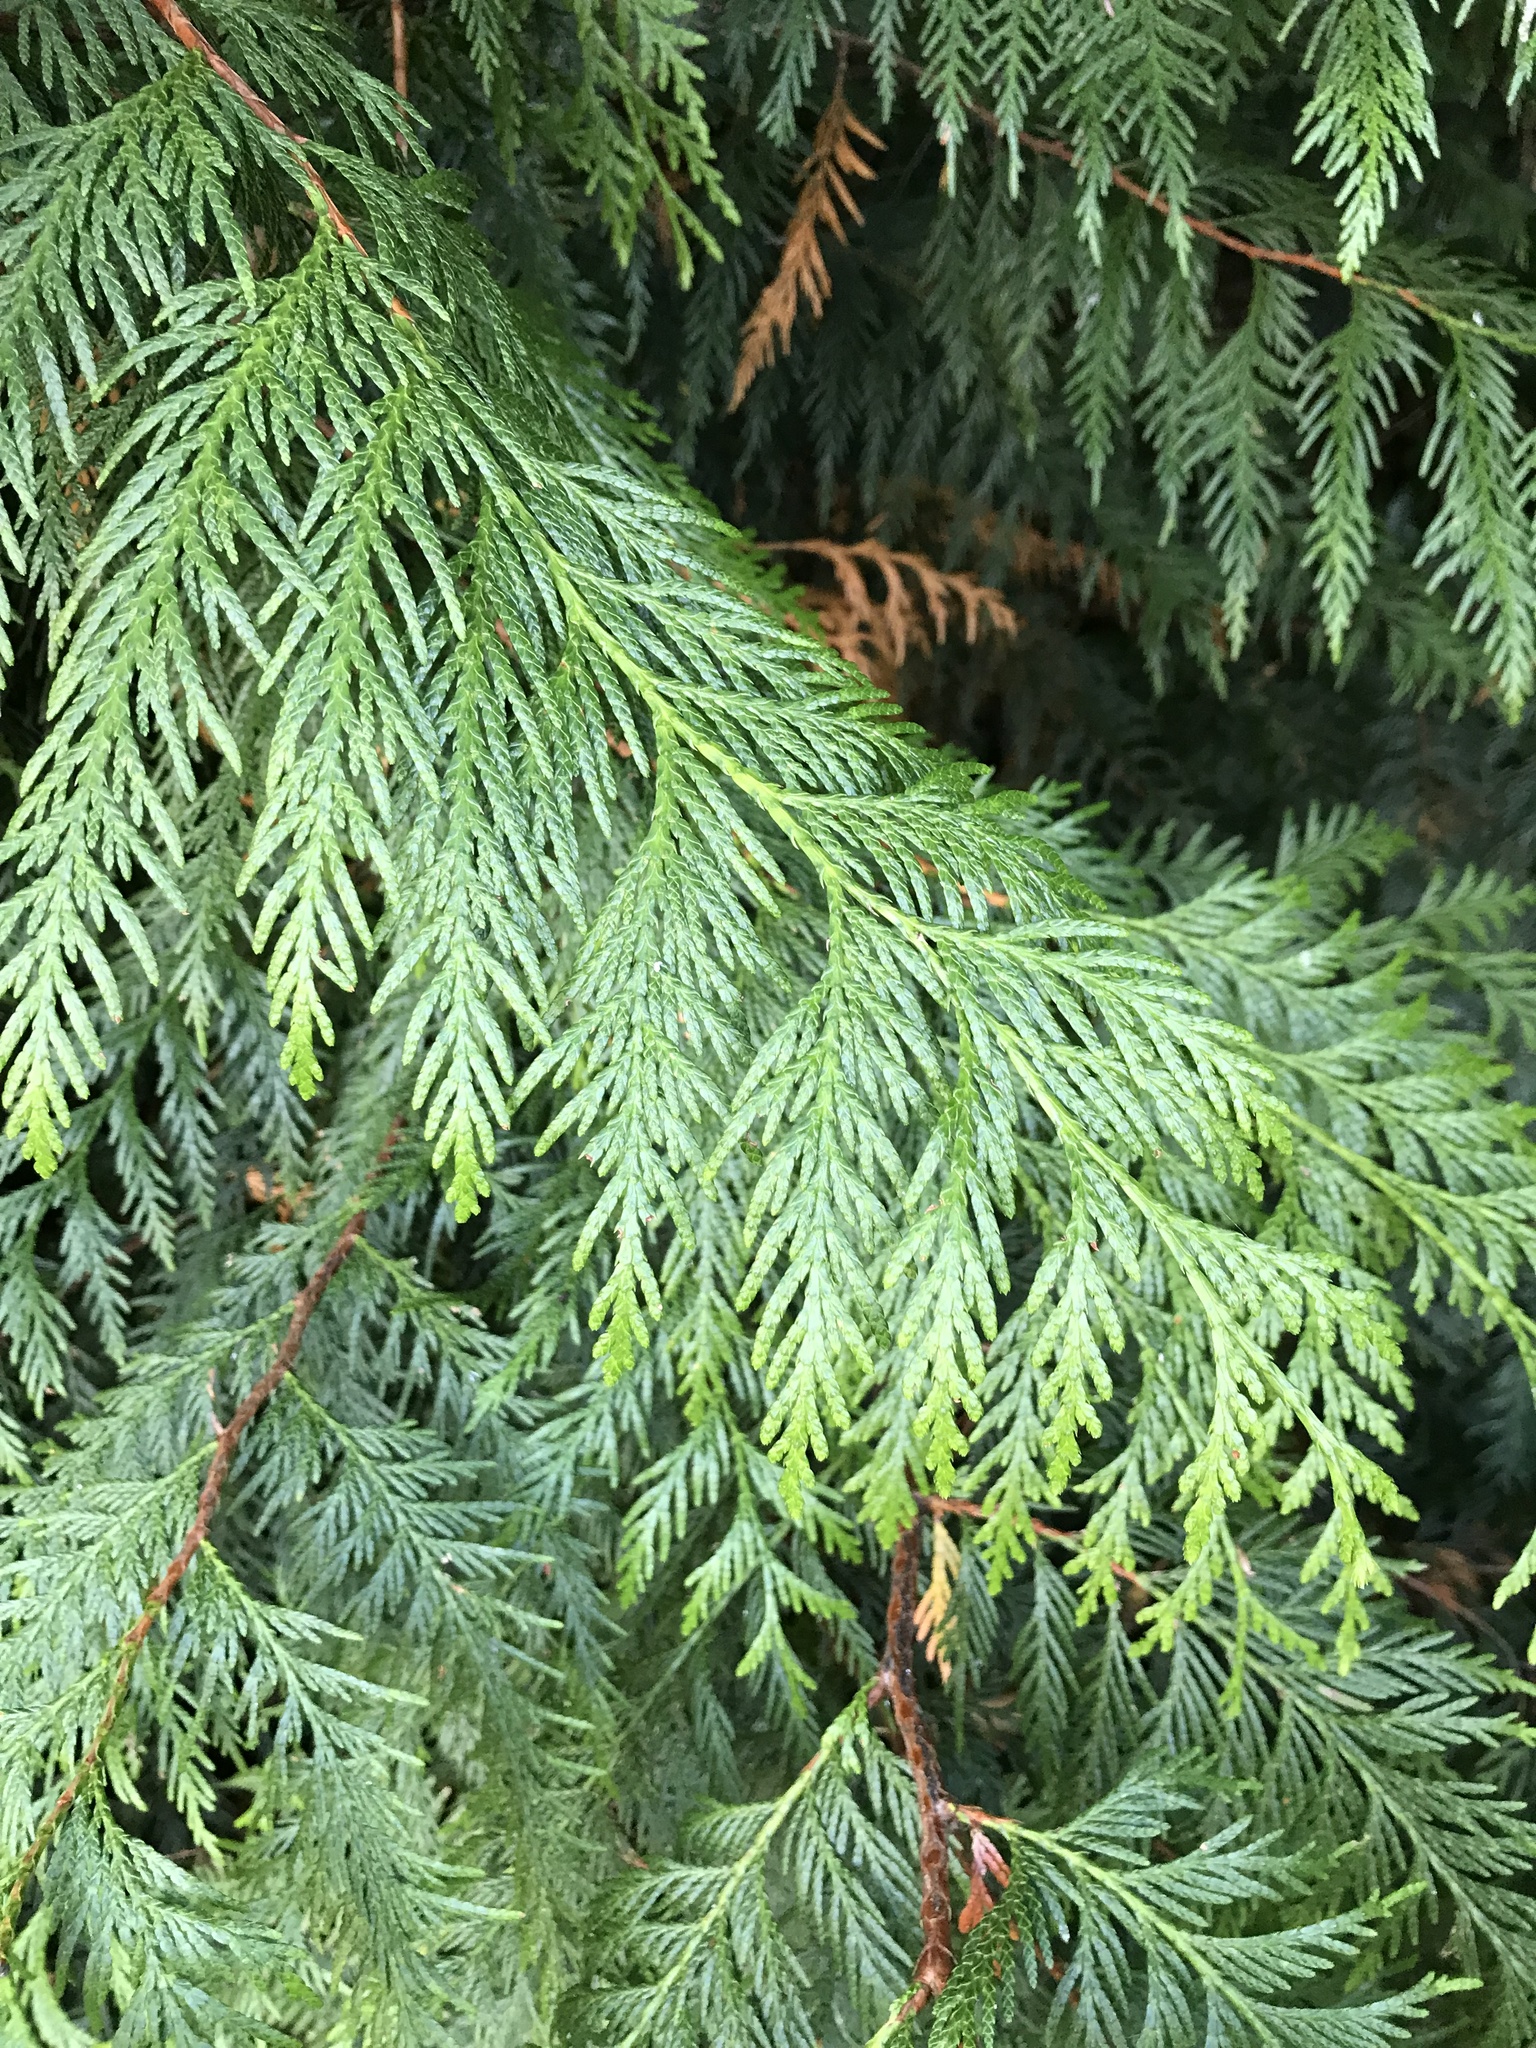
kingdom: Plantae
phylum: Tracheophyta
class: Pinopsida
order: Pinales
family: Cupressaceae
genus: Thuja
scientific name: Thuja plicata
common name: Western red-cedar
